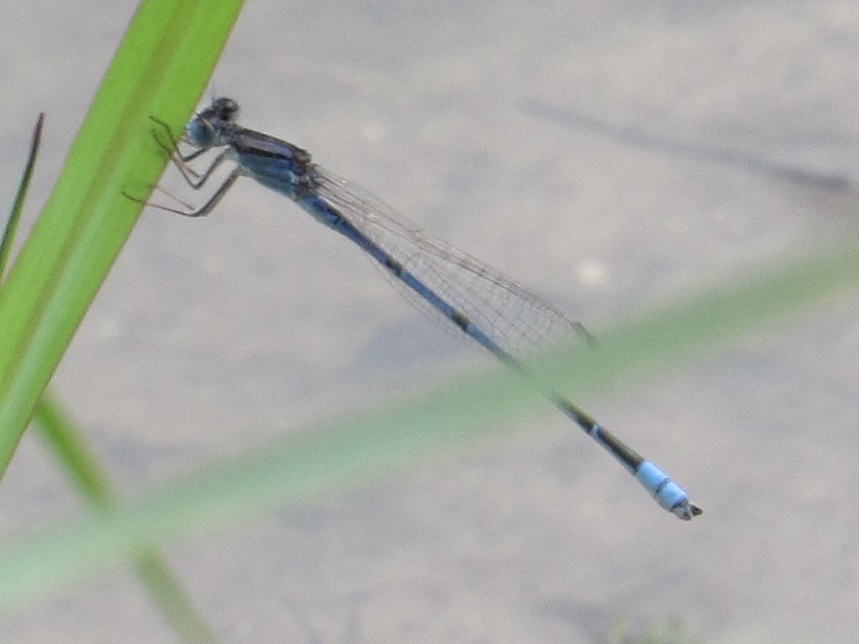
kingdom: Animalia
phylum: Arthropoda
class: Insecta
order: Odonata
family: Coenagrionidae
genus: Enallagma
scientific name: Enallagma civile
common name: Damselfly
